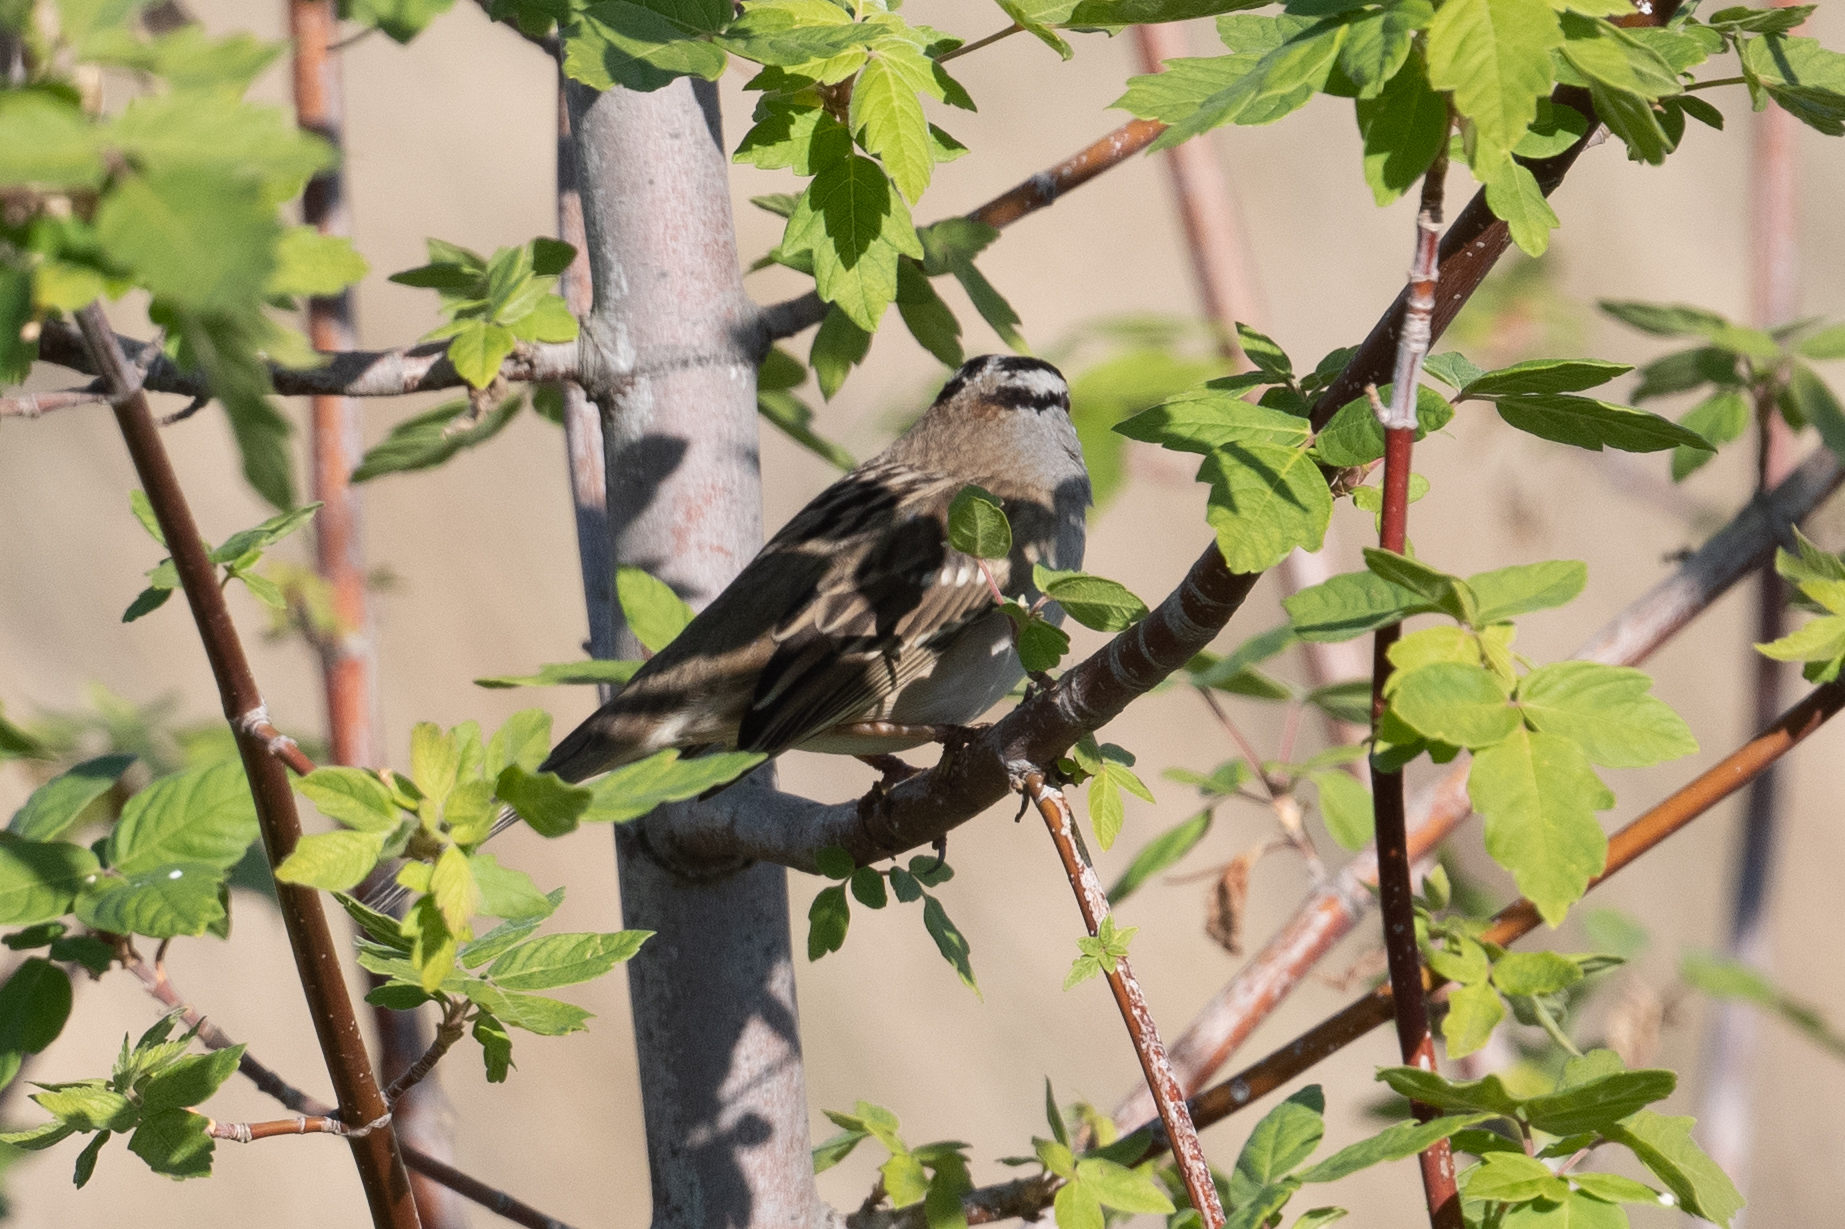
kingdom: Animalia
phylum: Chordata
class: Aves
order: Passeriformes
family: Passerellidae
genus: Zonotrichia
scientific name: Zonotrichia leucophrys
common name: White-crowned sparrow
